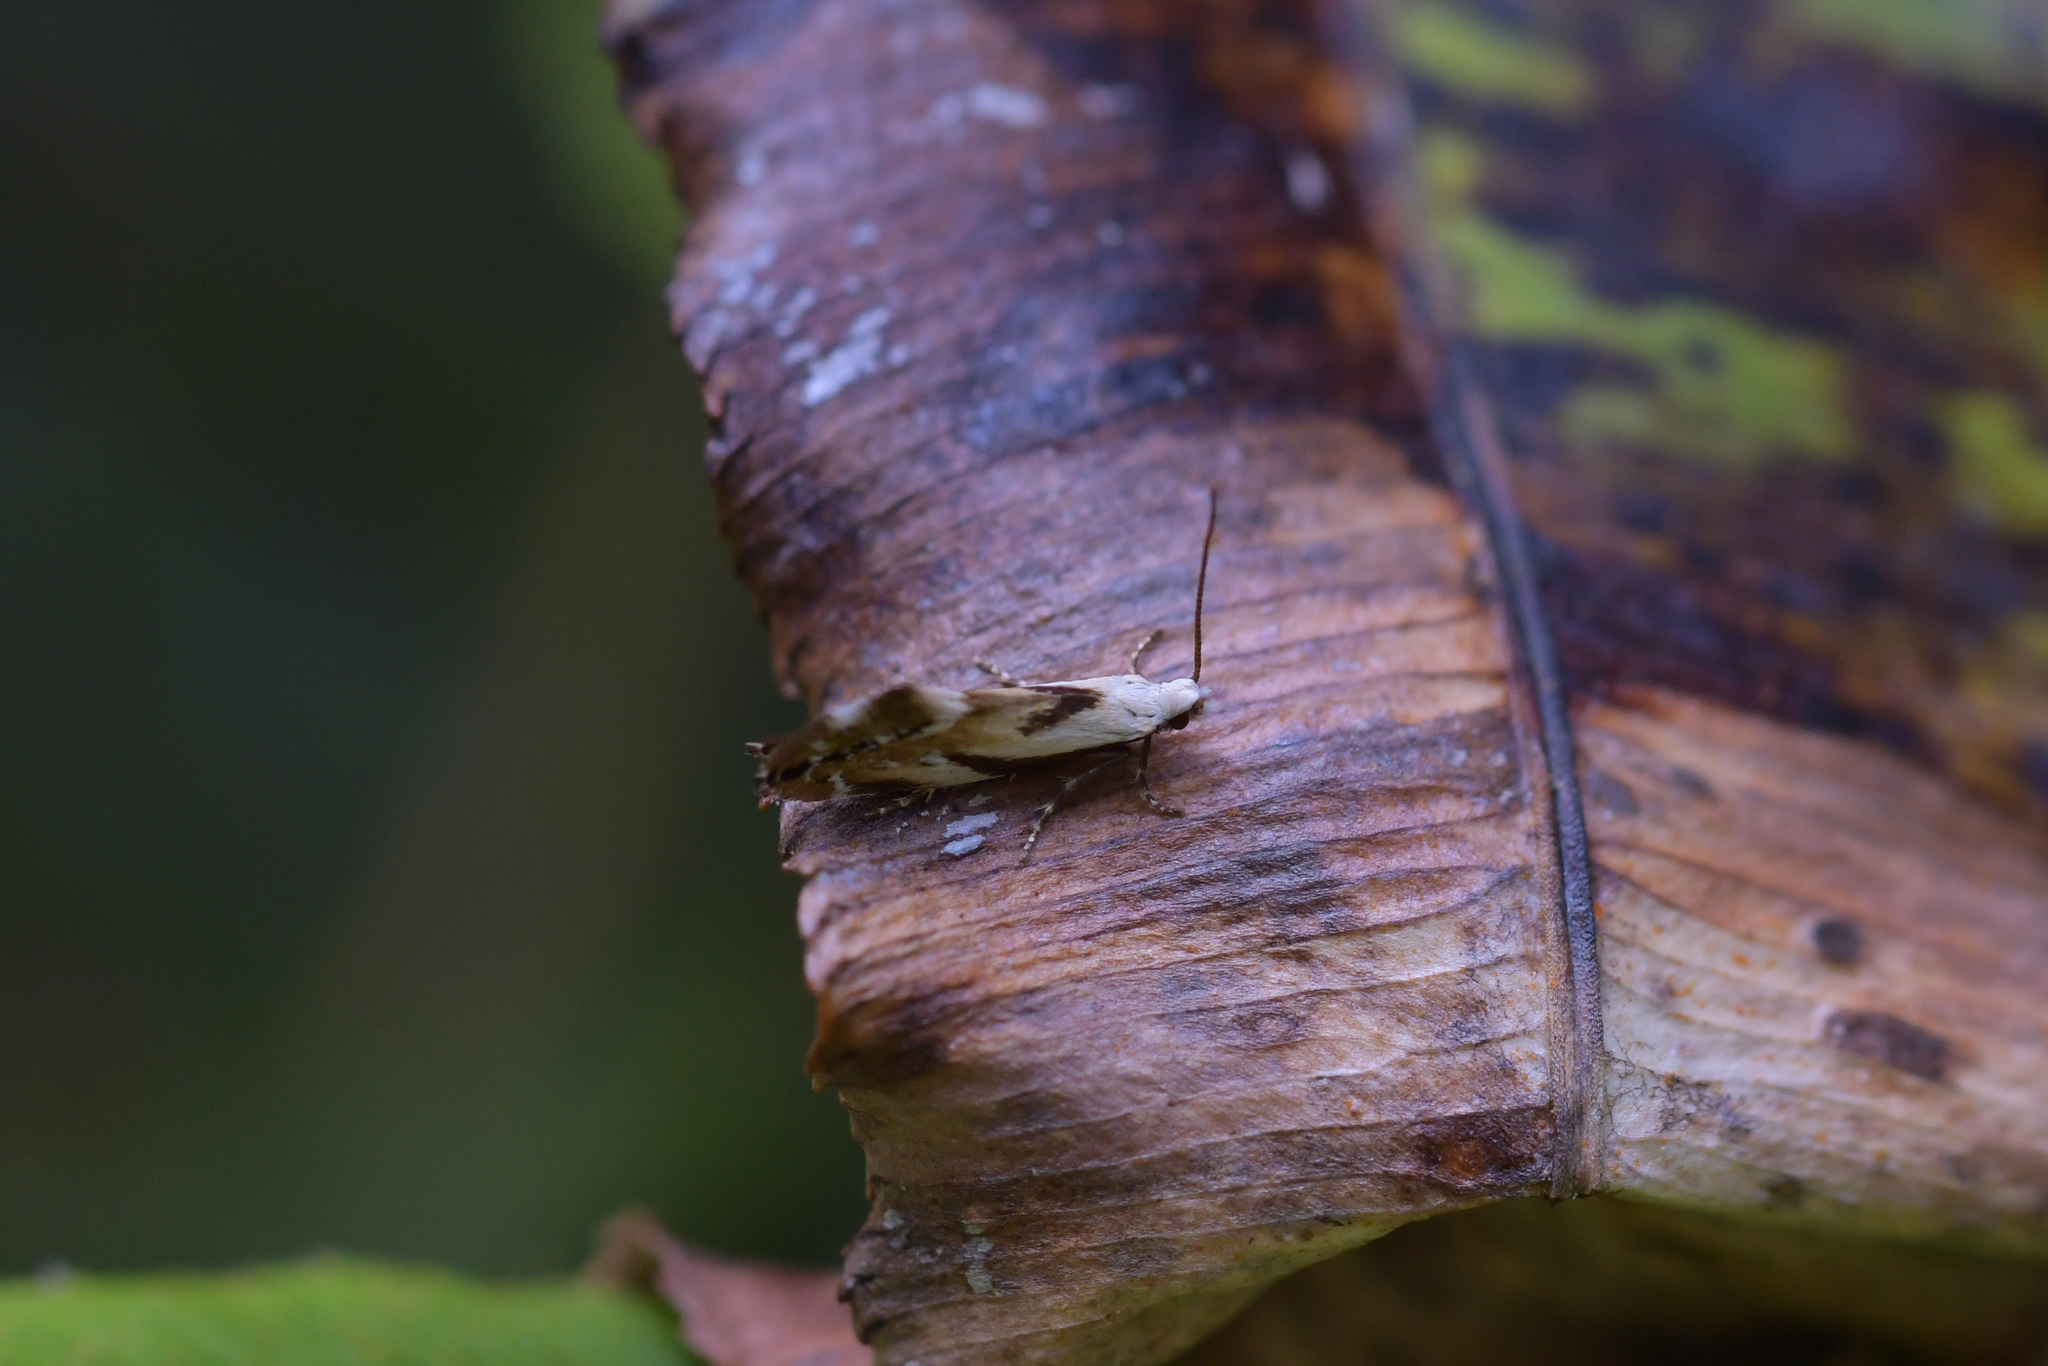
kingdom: Animalia
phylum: Arthropoda
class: Insecta
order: Lepidoptera
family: Mnesarchaeidae
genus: Mnesarchella
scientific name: Mnesarchella acuta
